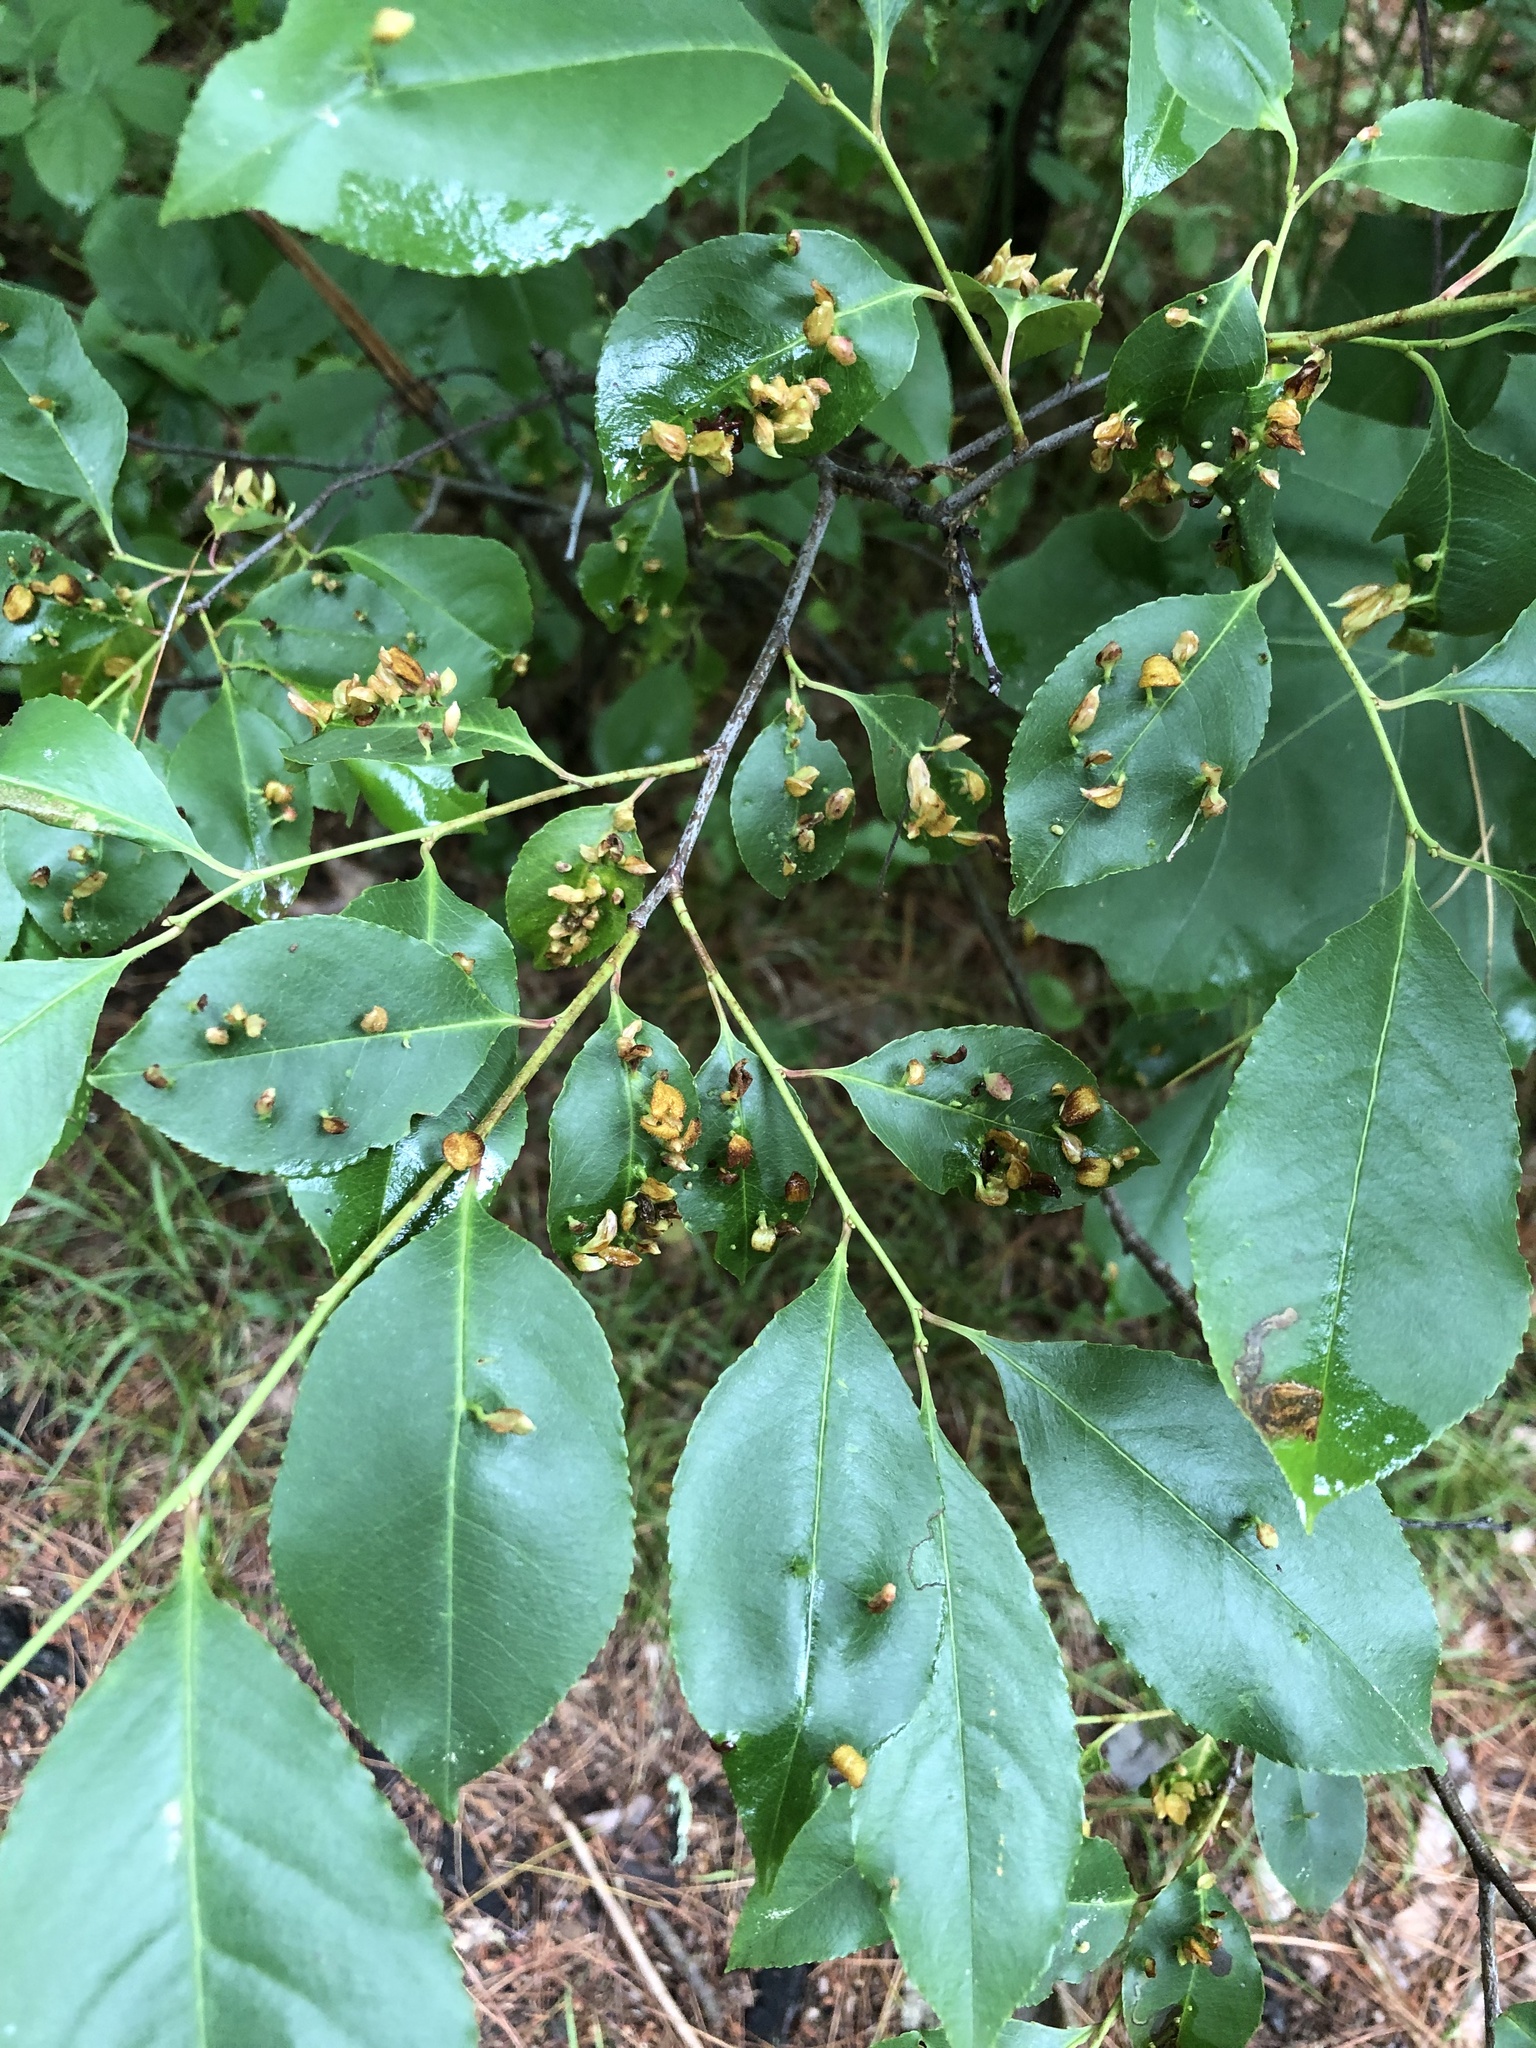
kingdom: Animalia
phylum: Arthropoda
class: Arachnida
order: Trombidiformes
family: Eriophyidae
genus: Eriophyes
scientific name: Eriophyes
